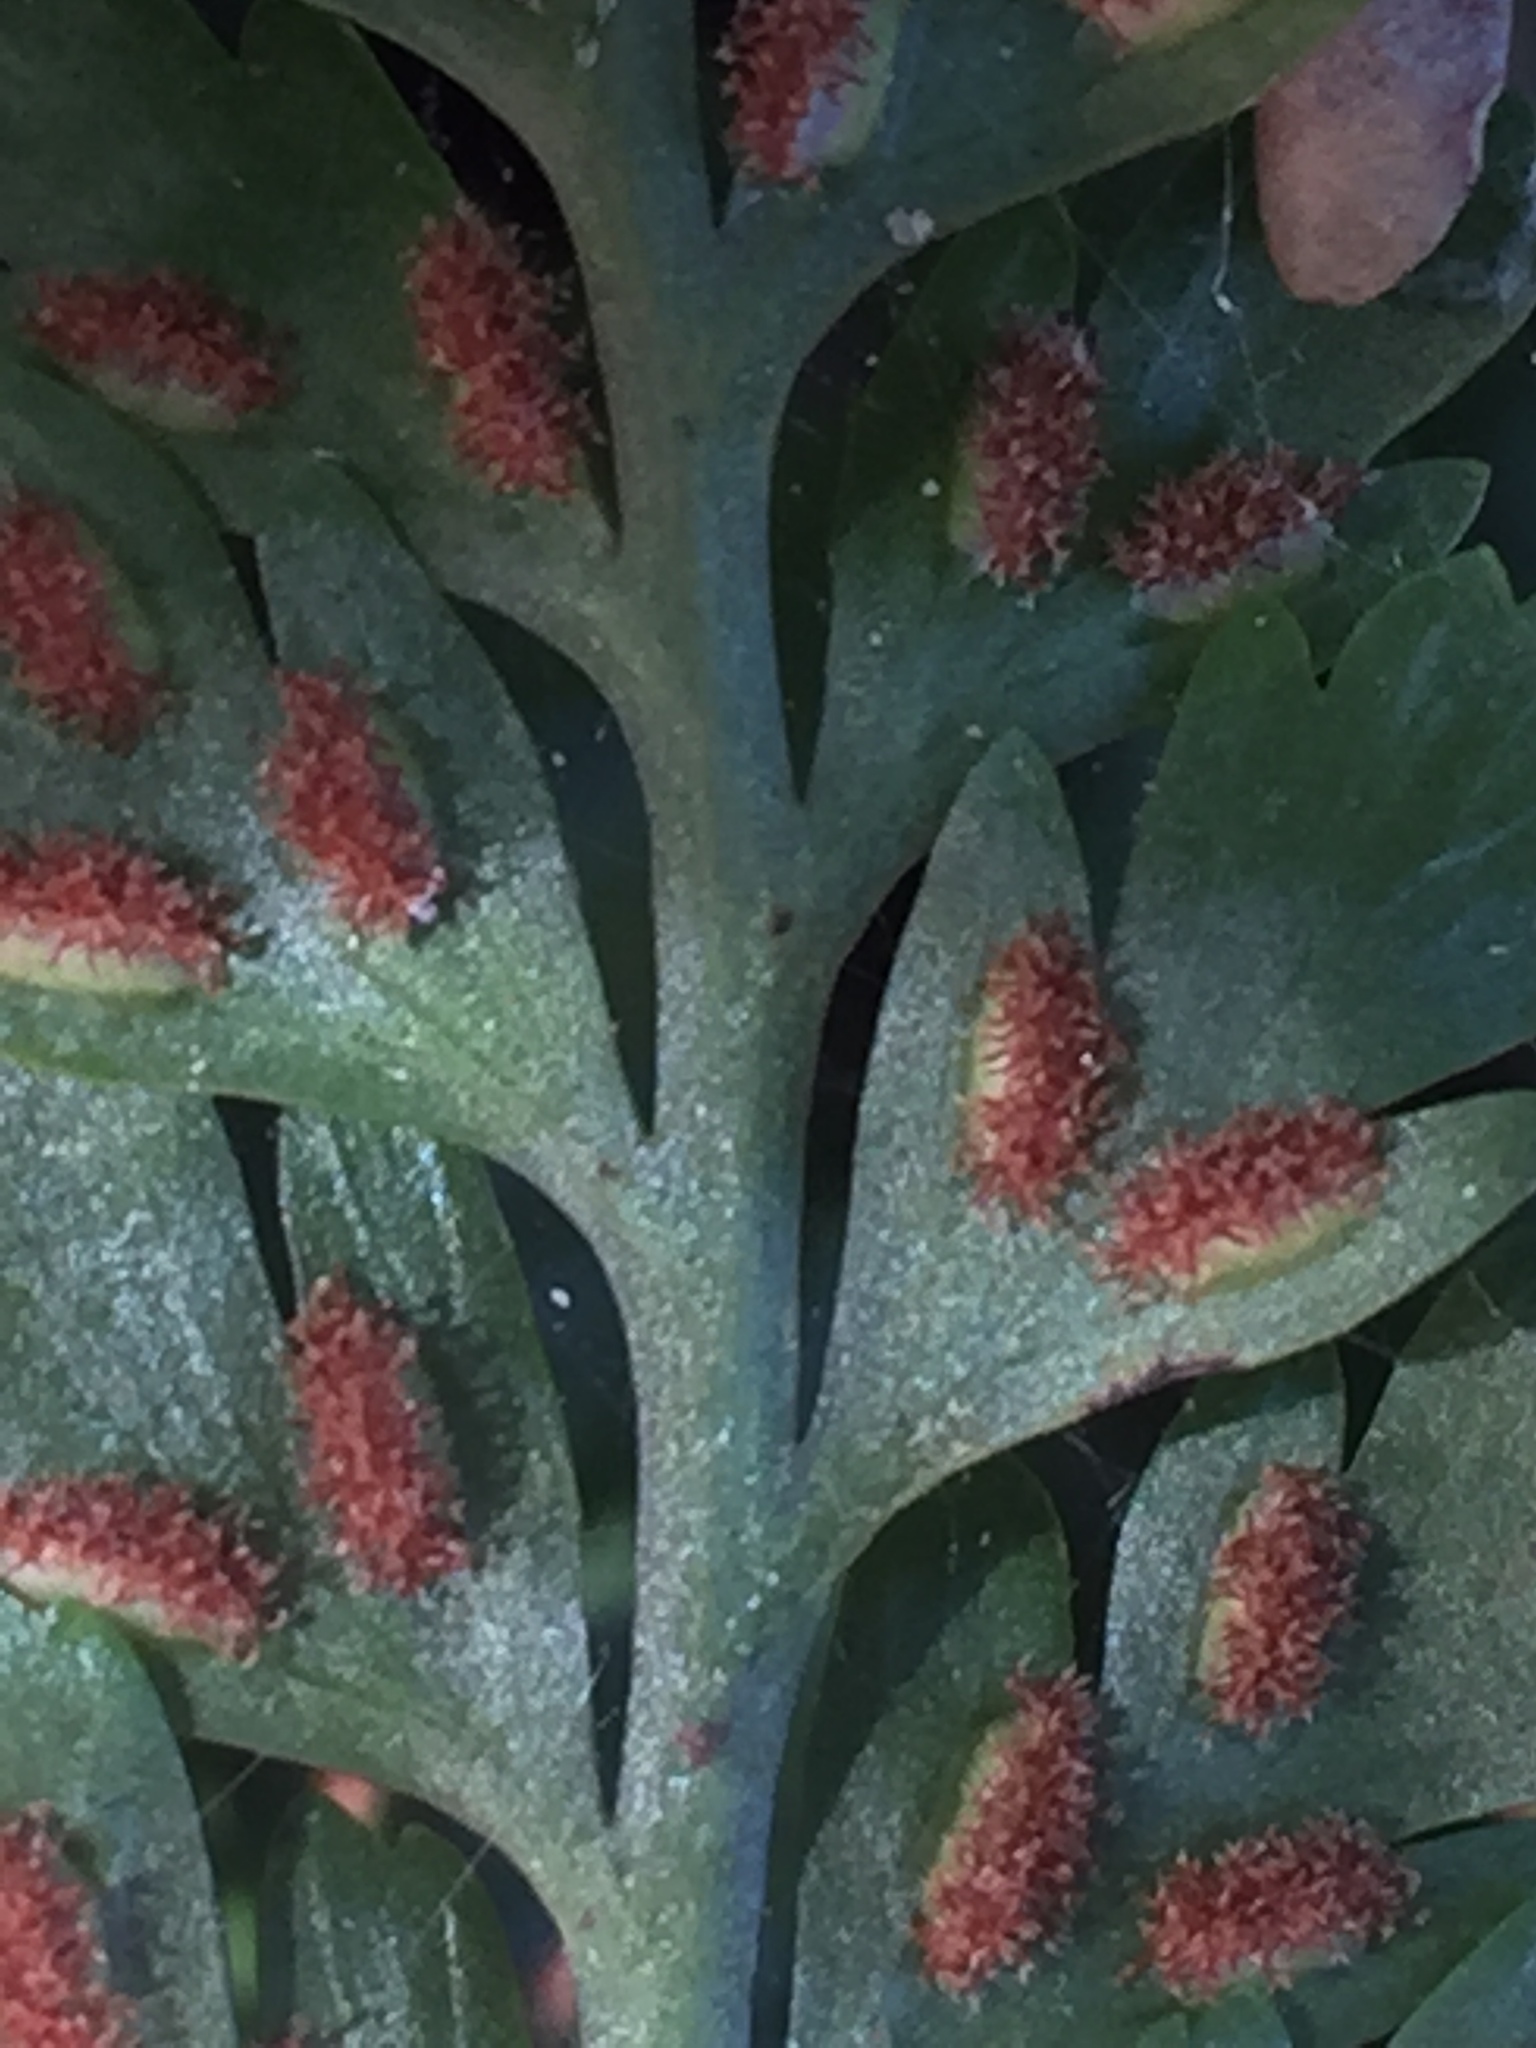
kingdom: Plantae
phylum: Tracheophyta
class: Polypodiopsida
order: Polypodiales
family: Aspleniaceae
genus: Asplenium
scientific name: Asplenium
